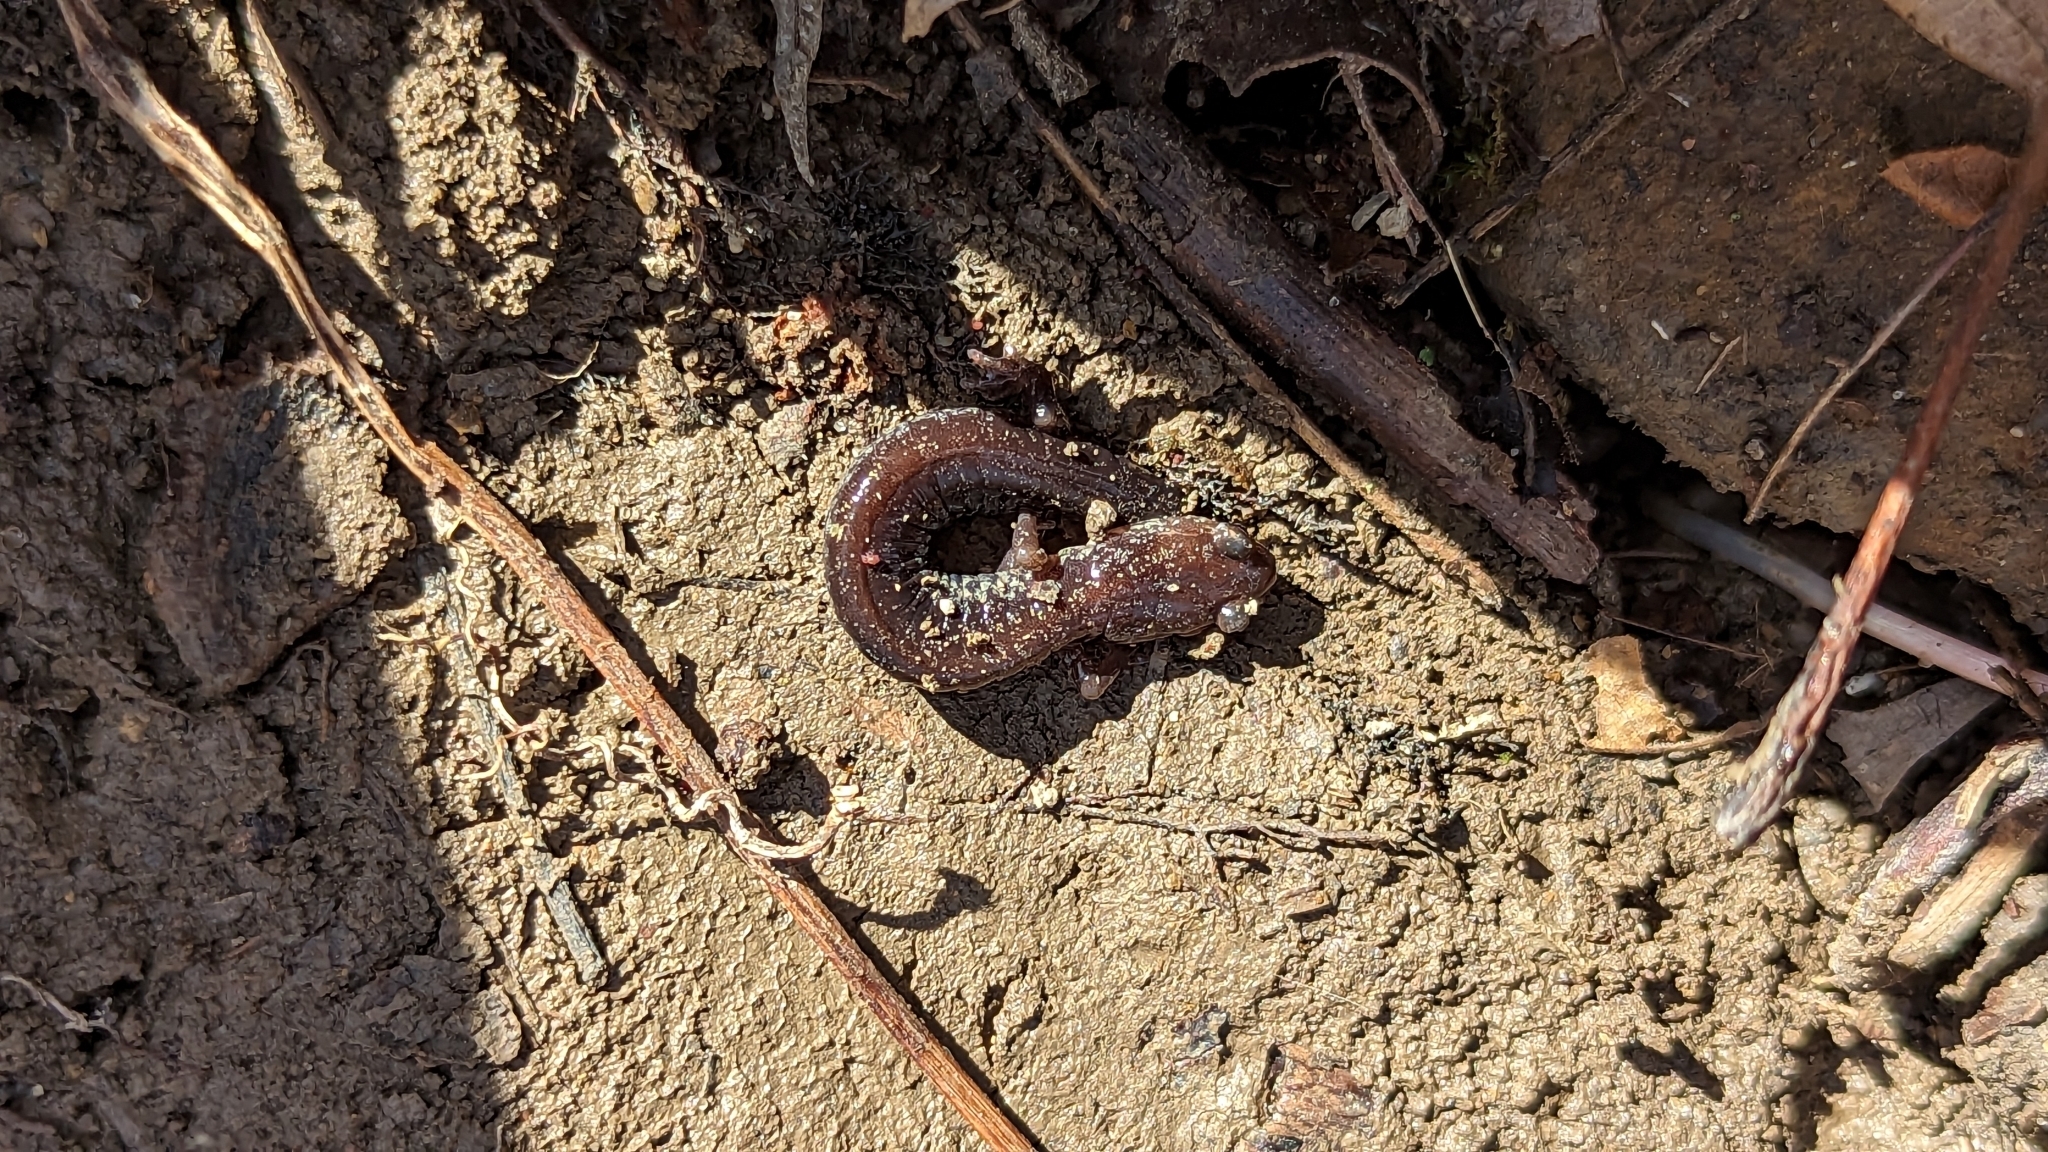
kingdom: Animalia
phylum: Chordata
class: Amphibia
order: Caudata
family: Plethodontidae
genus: Plethodon
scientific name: Plethodon cinereus
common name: Redback salamander
